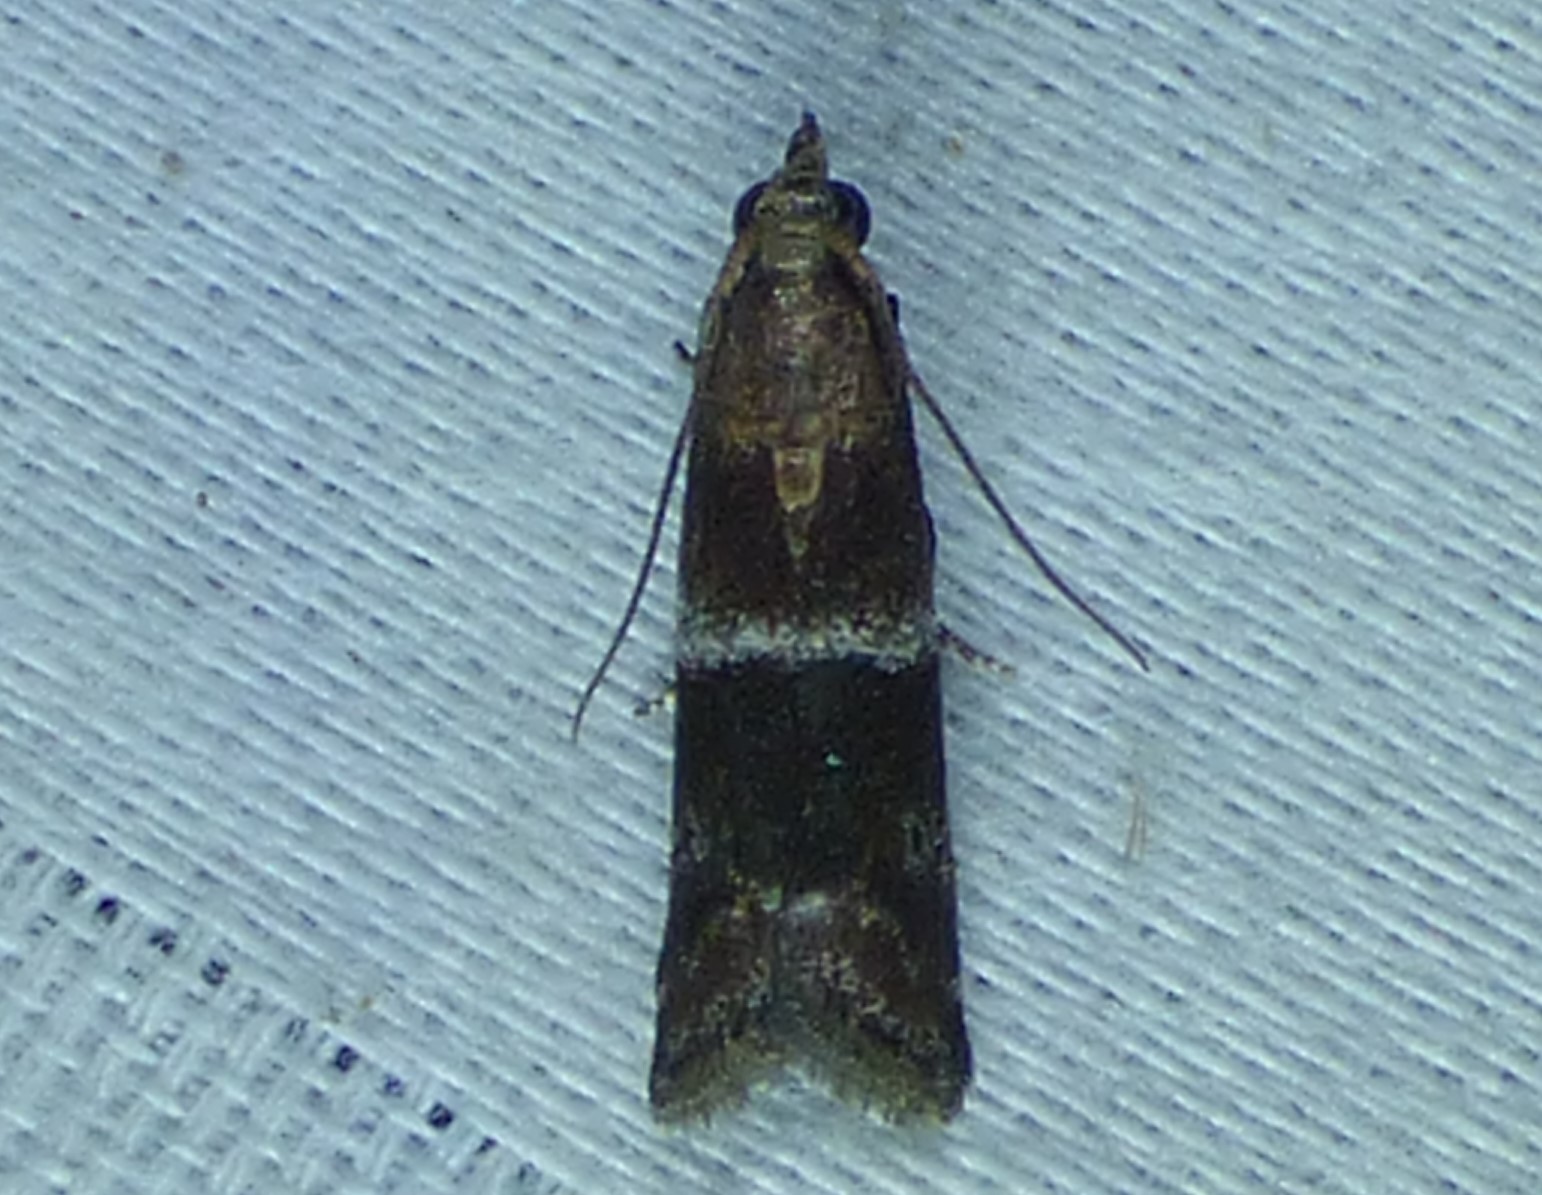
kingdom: Animalia
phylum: Arthropoda
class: Insecta
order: Lepidoptera
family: Pyralidae
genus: Moodna
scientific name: Moodna ostrinella
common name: Darker moodna moth
